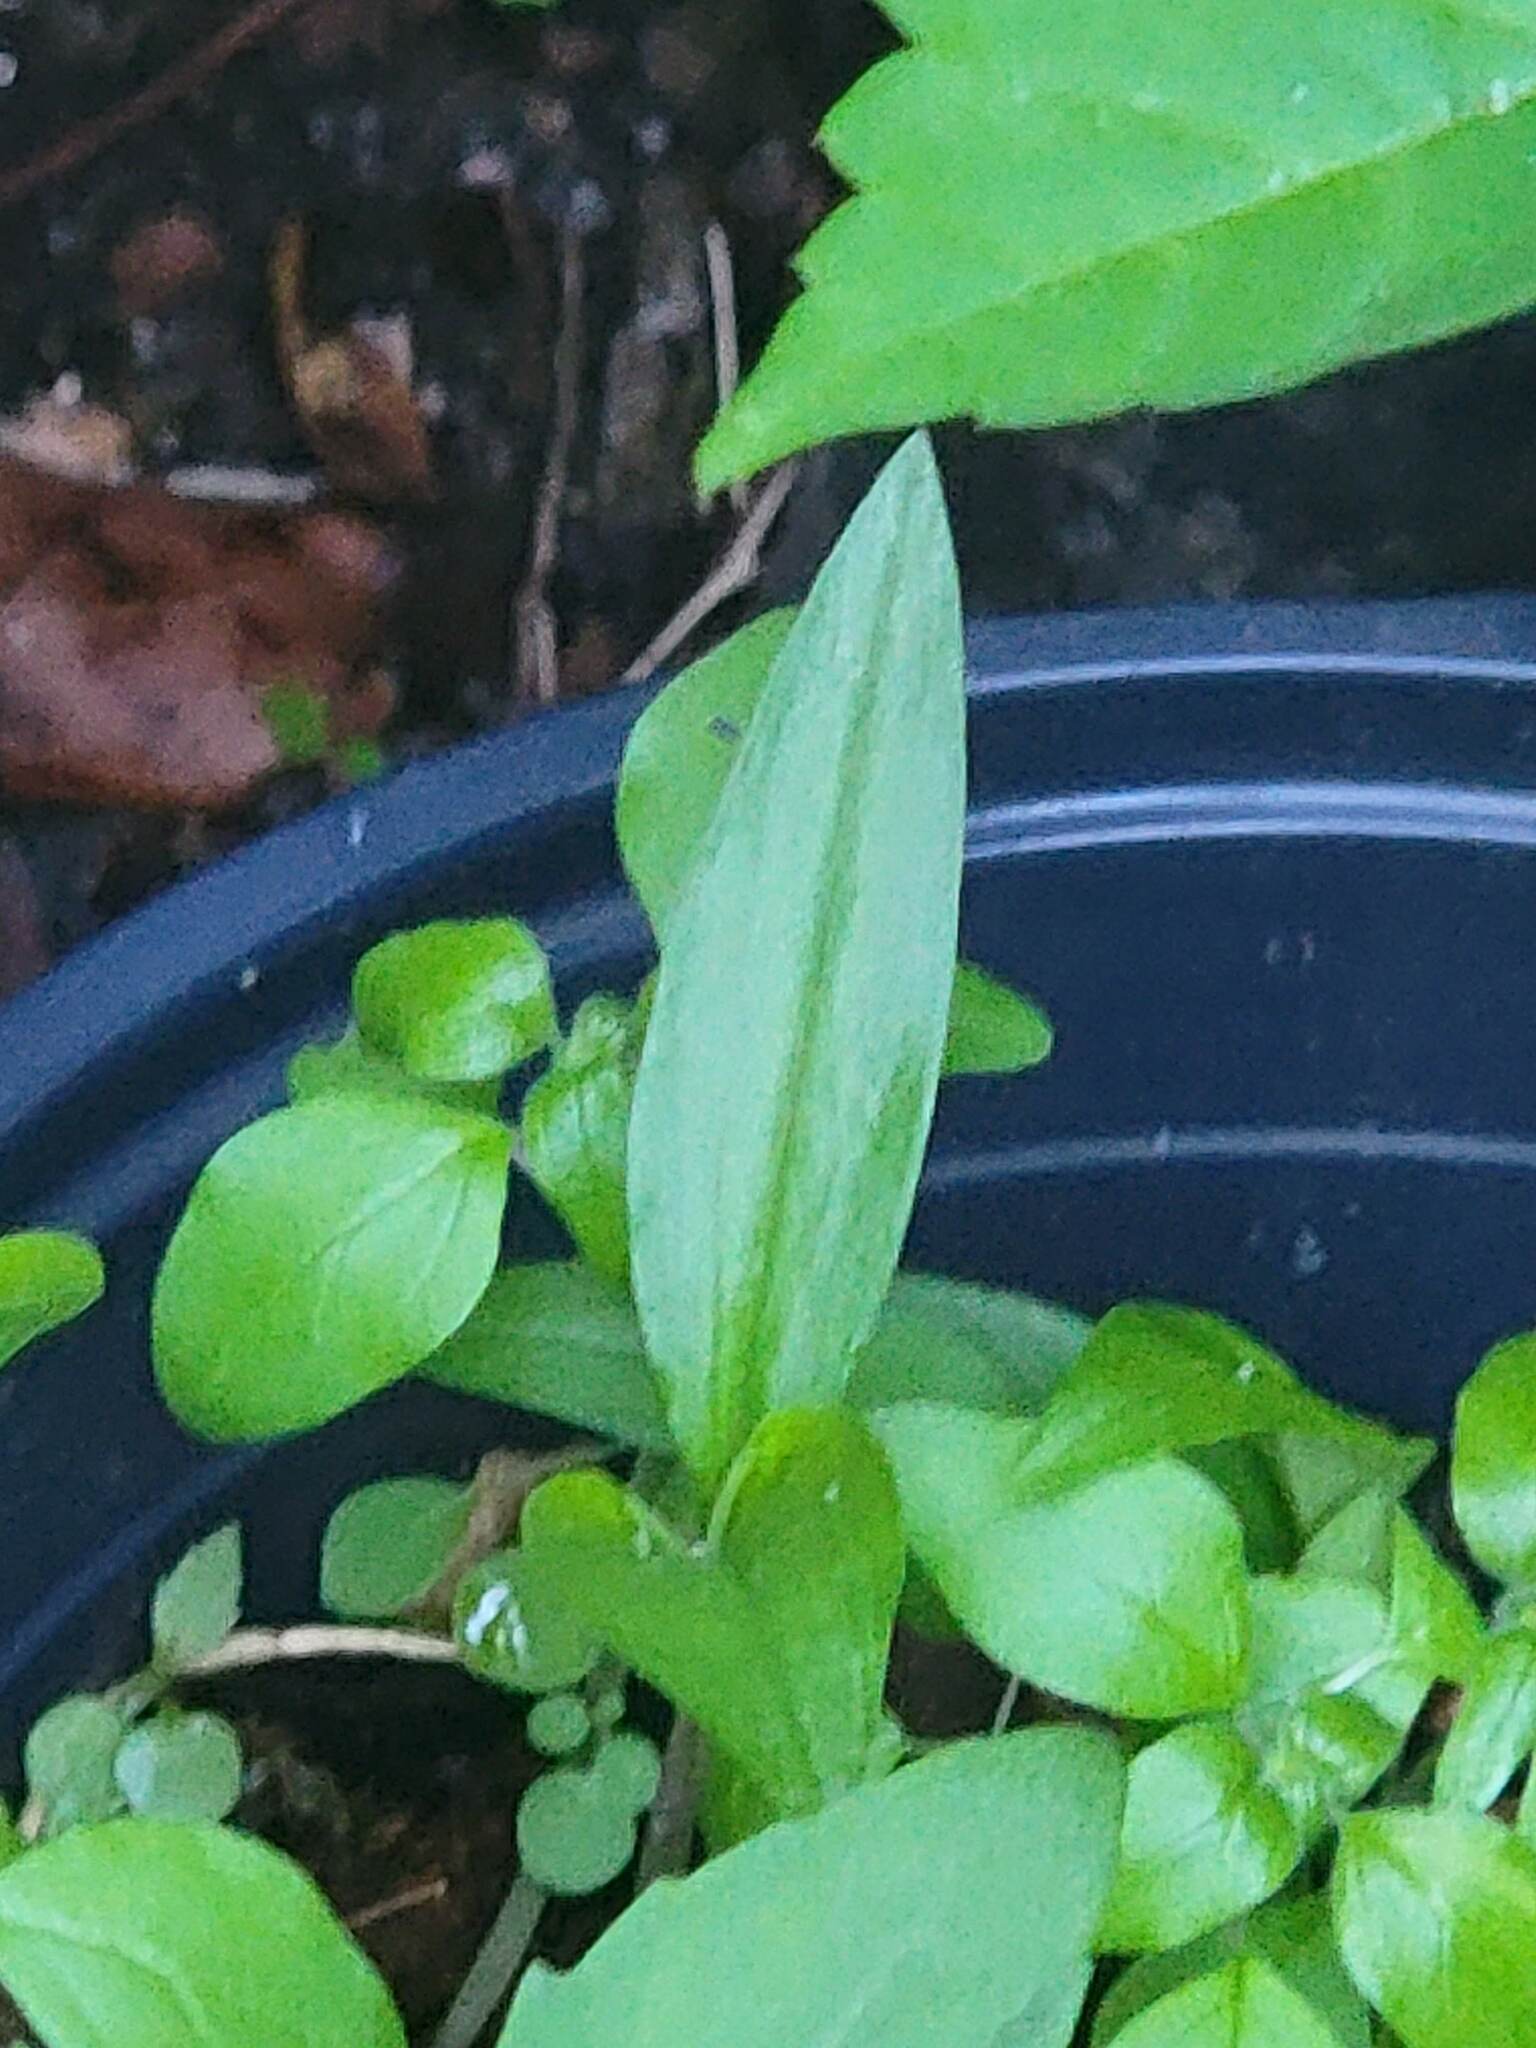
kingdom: Plantae
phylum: Tracheophyta
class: Liliopsida
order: Commelinales
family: Commelinaceae
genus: Commelina
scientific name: Commelina communis
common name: Asiatic dayflower
